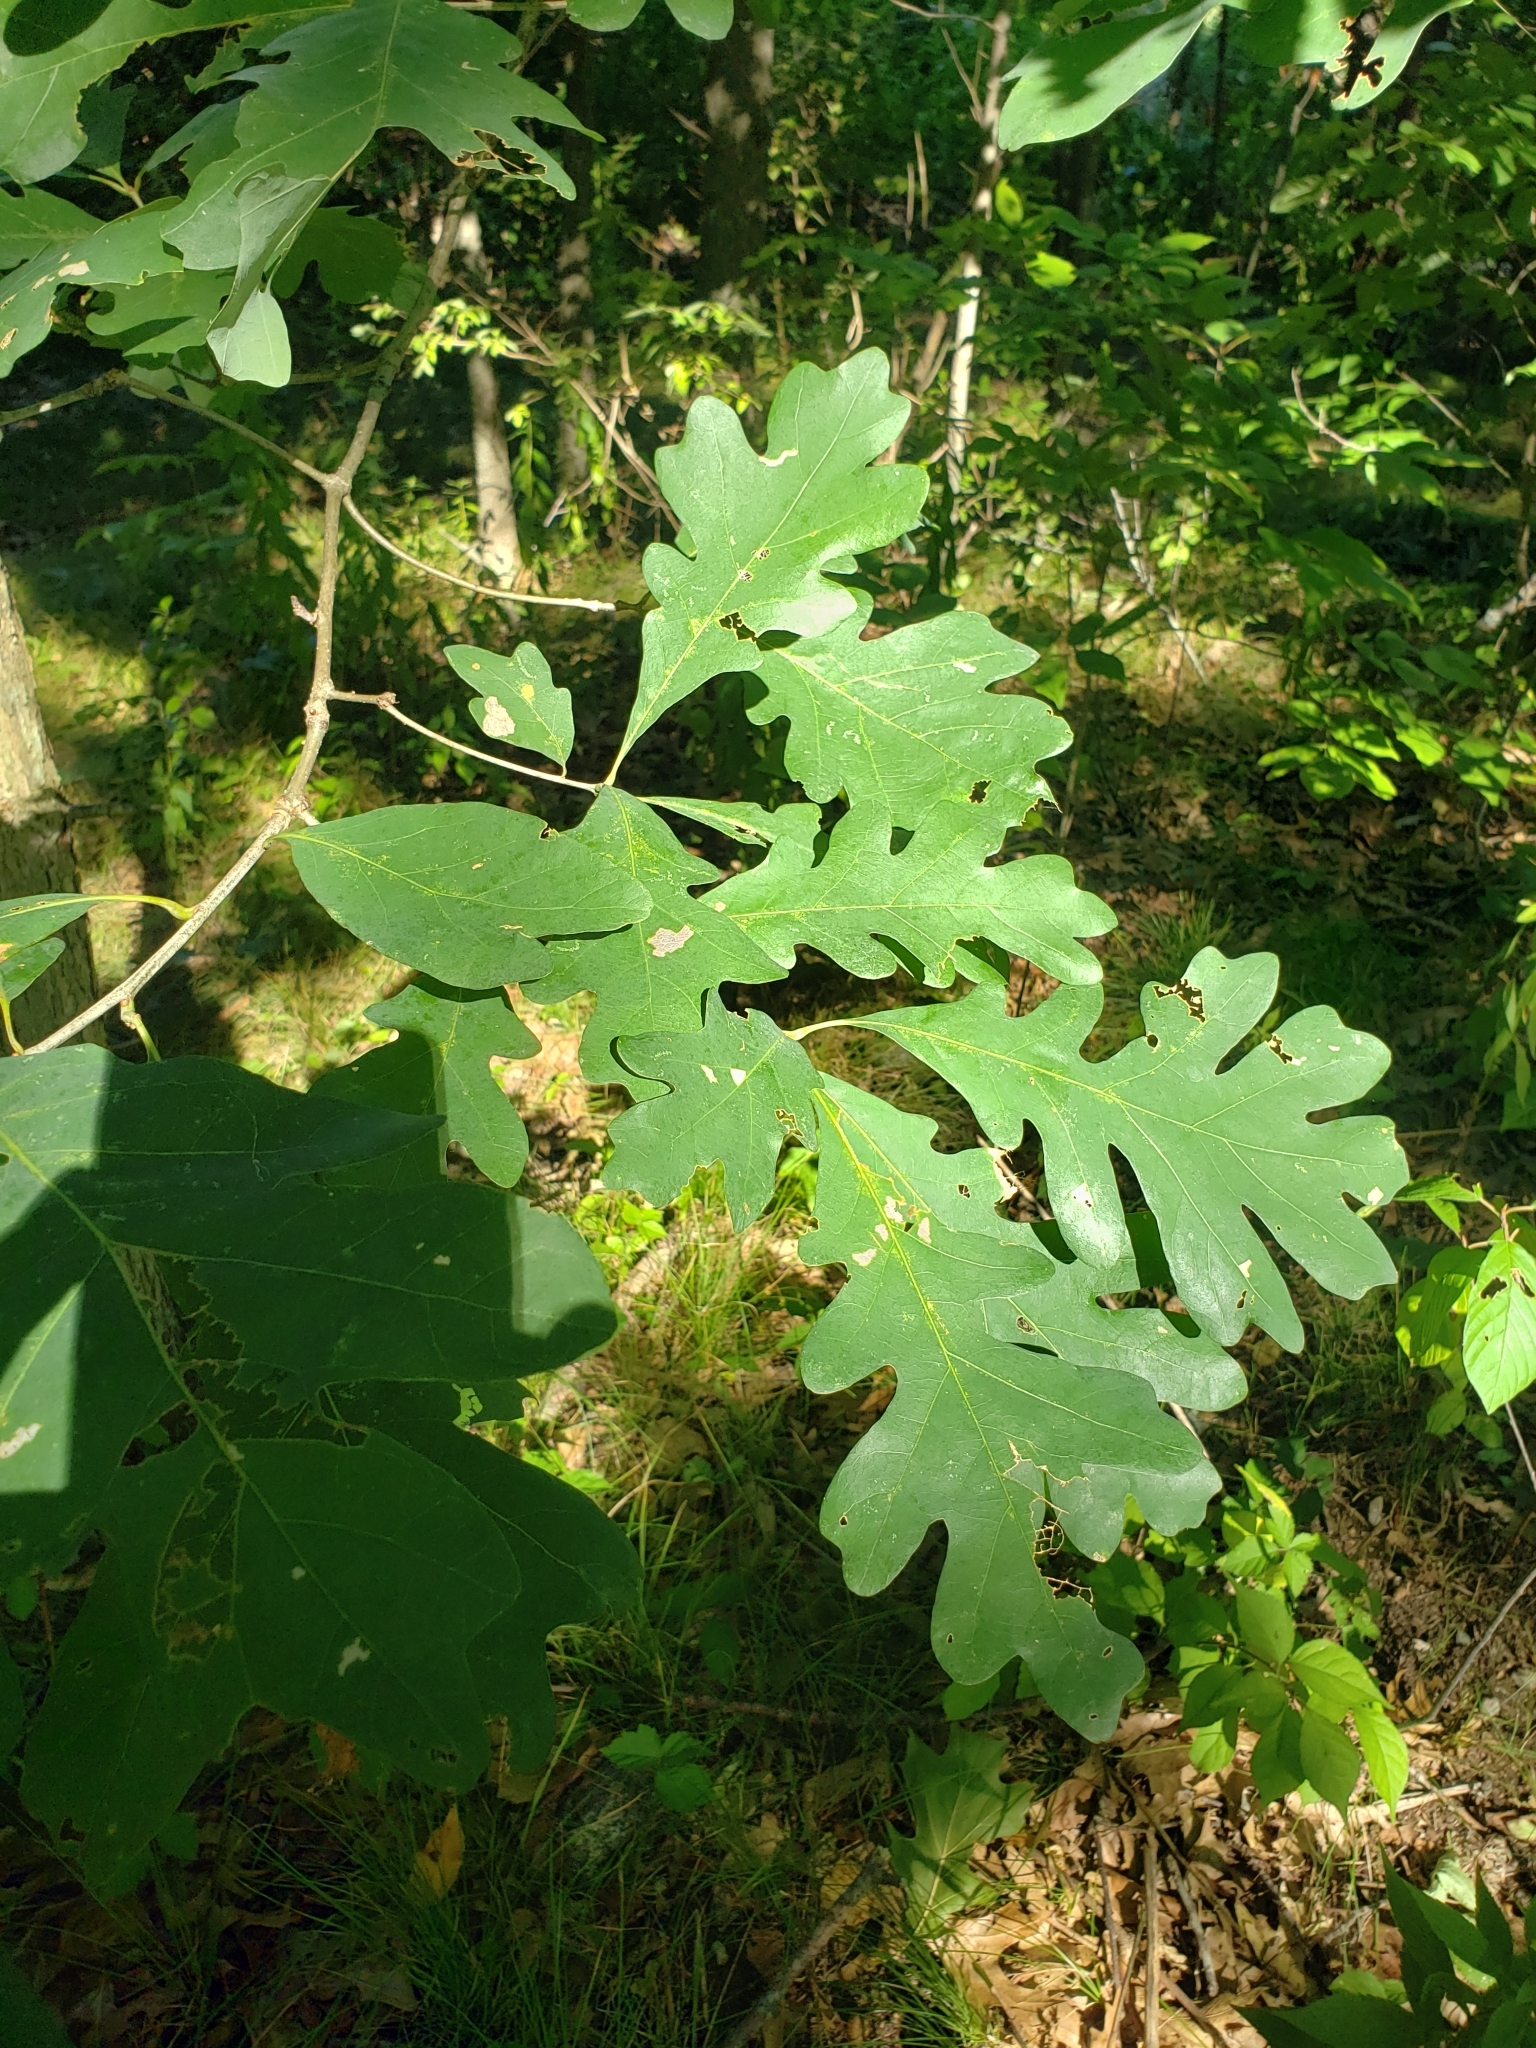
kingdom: Plantae
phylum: Tracheophyta
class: Magnoliopsida
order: Fagales
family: Fagaceae
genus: Quercus
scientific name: Quercus alba
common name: White oak
